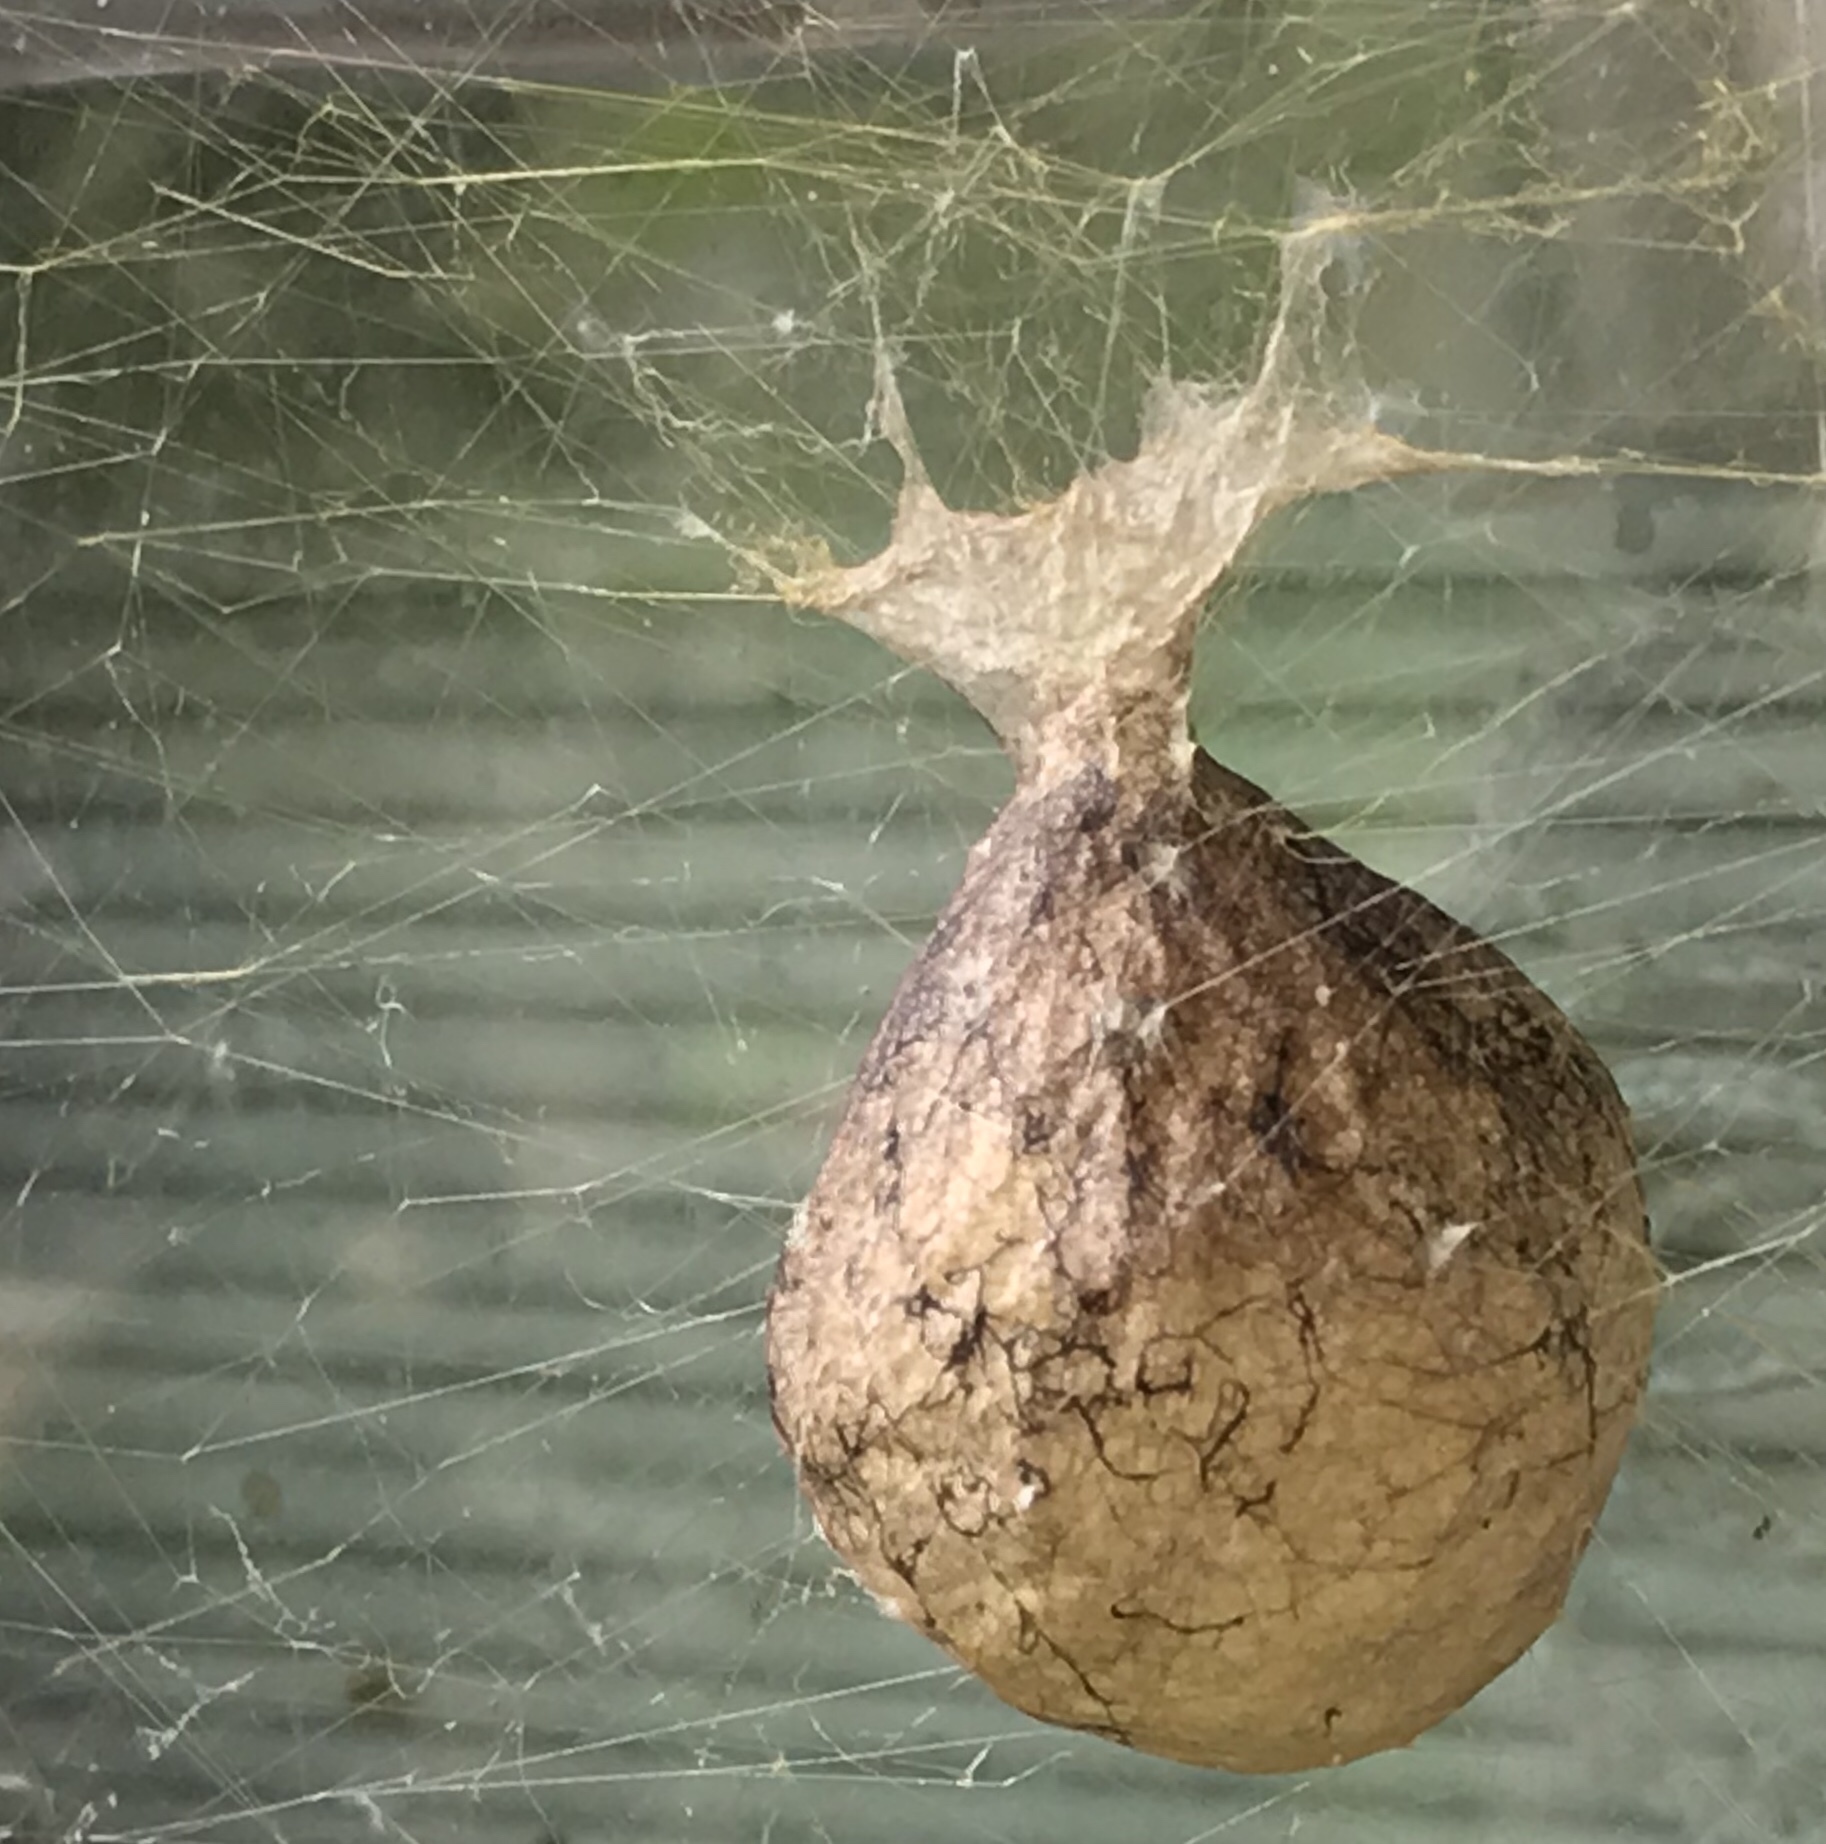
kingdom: Animalia
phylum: Arthropoda
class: Arachnida
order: Araneae
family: Araneidae
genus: Argiope
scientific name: Argiope aurantia
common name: Orb weavers
